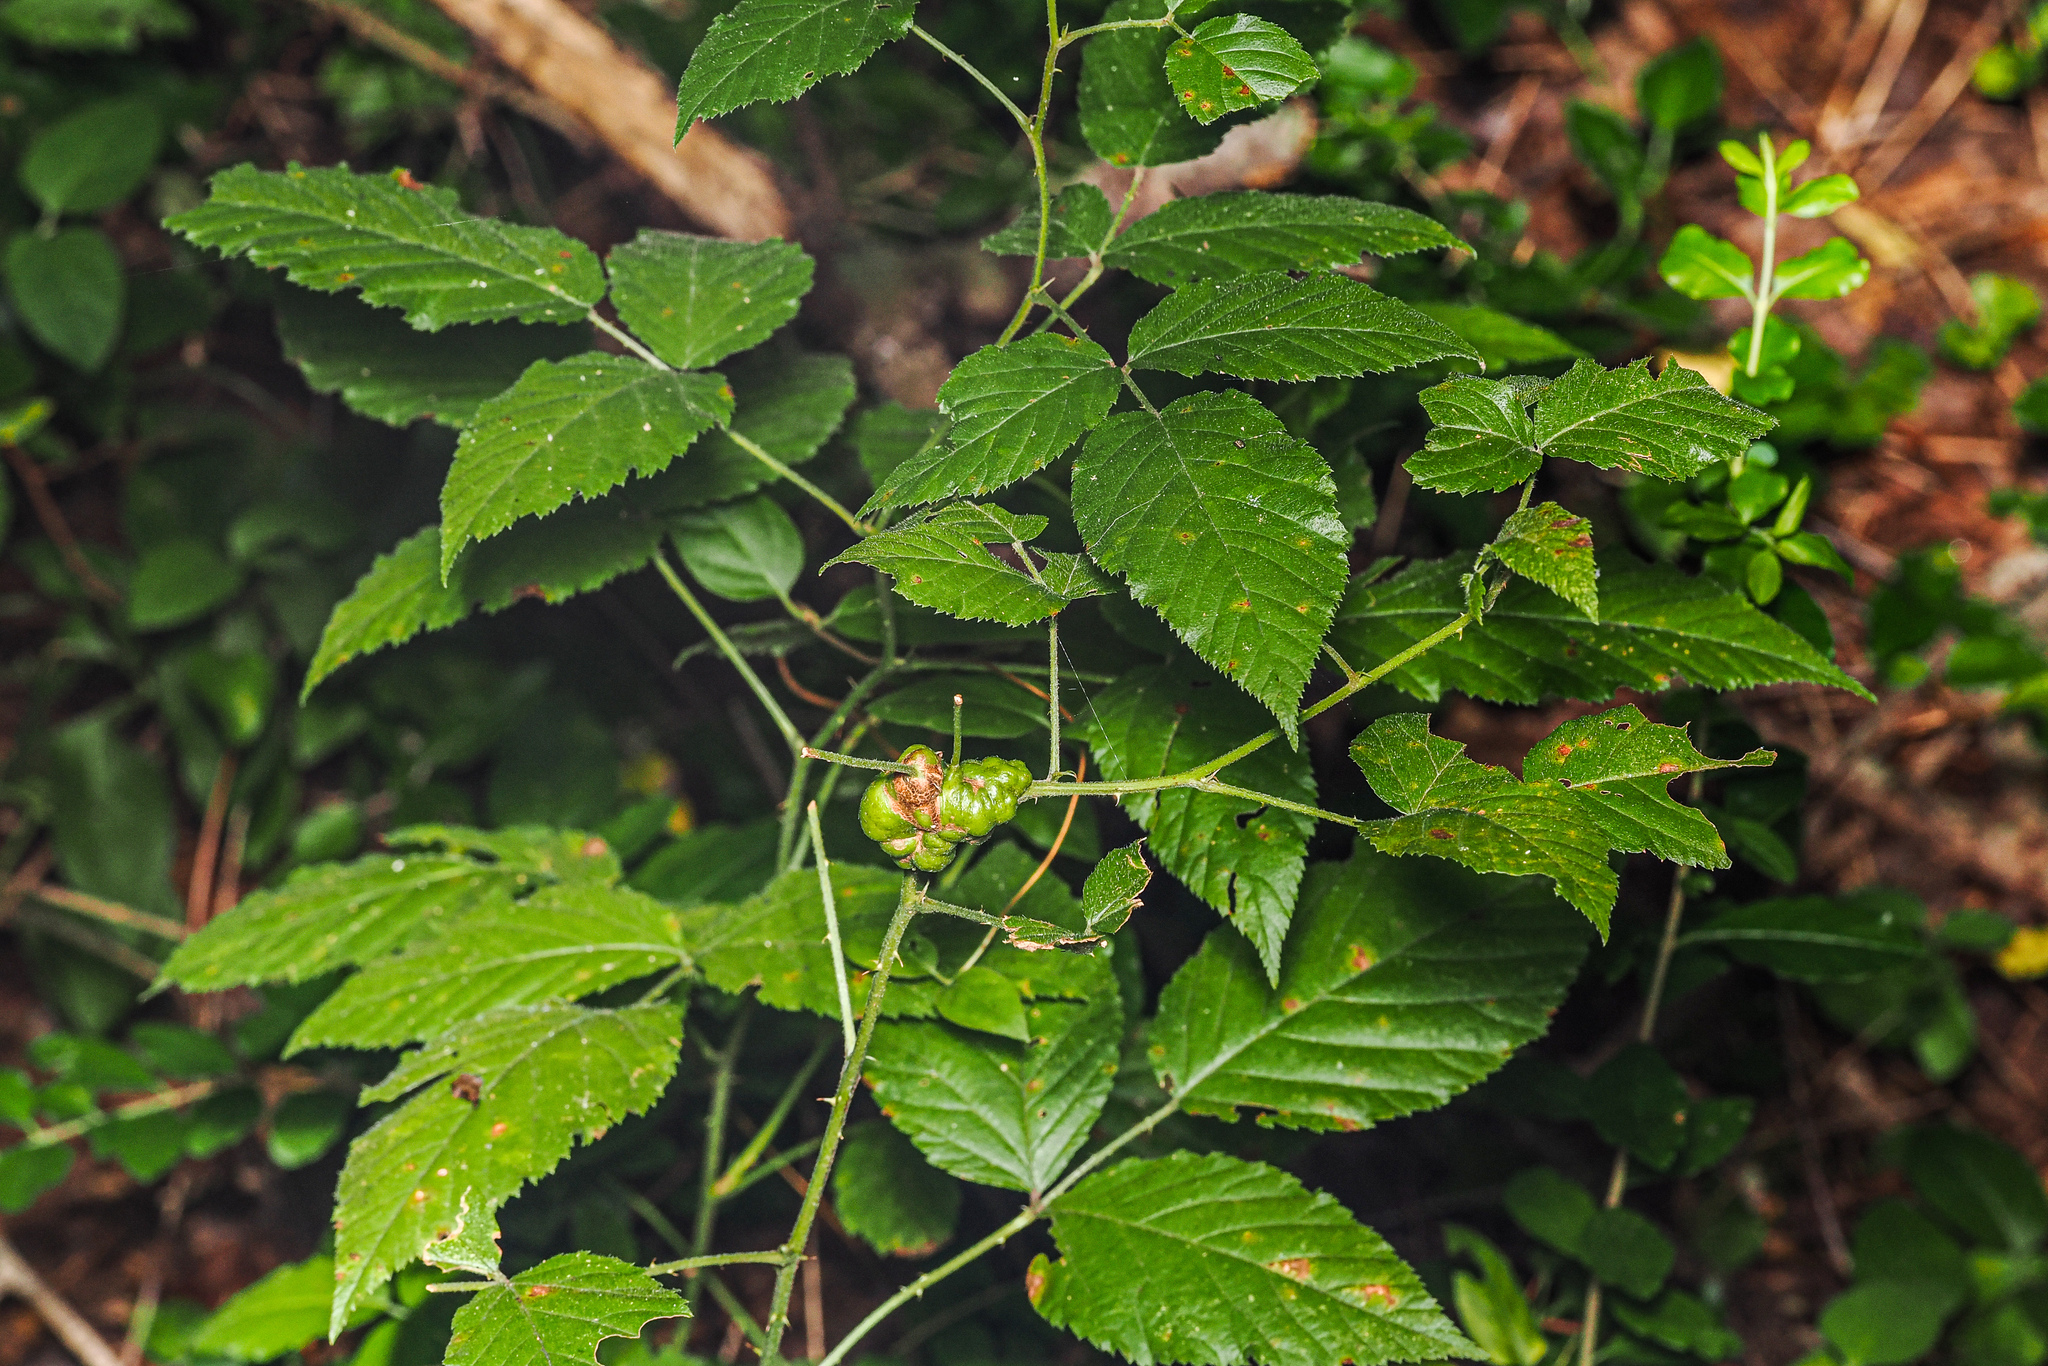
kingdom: Animalia
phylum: Arthropoda
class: Insecta
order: Hymenoptera
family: Cynipidae
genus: Diastrophus
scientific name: Diastrophus
